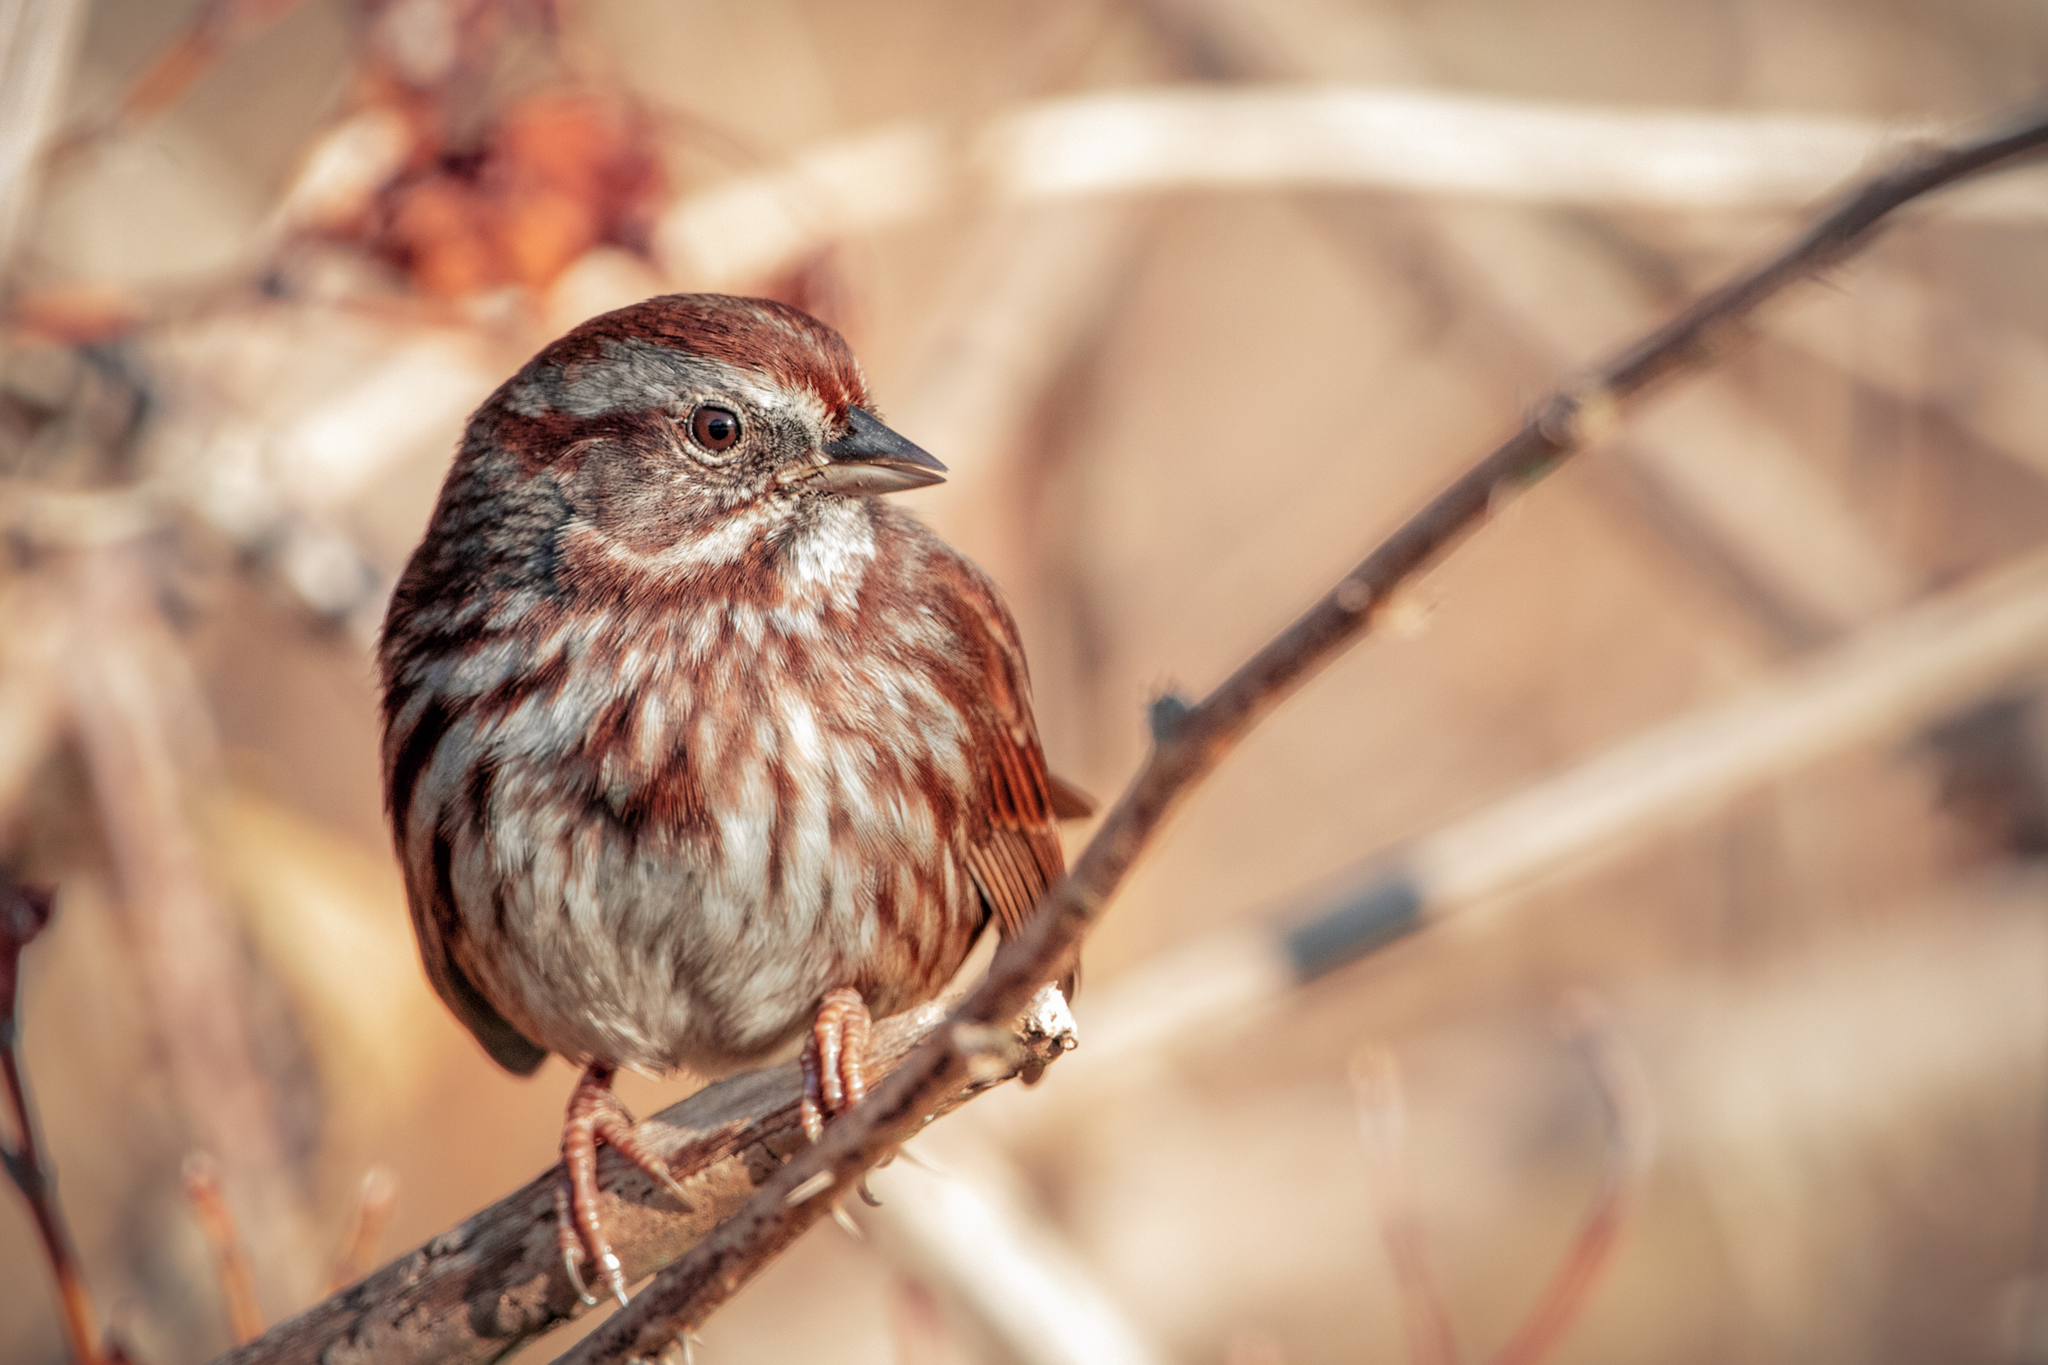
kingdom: Animalia
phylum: Chordata
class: Aves
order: Passeriformes
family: Passerellidae
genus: Melospiza
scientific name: Melospiza melodia
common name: Song sparrow
